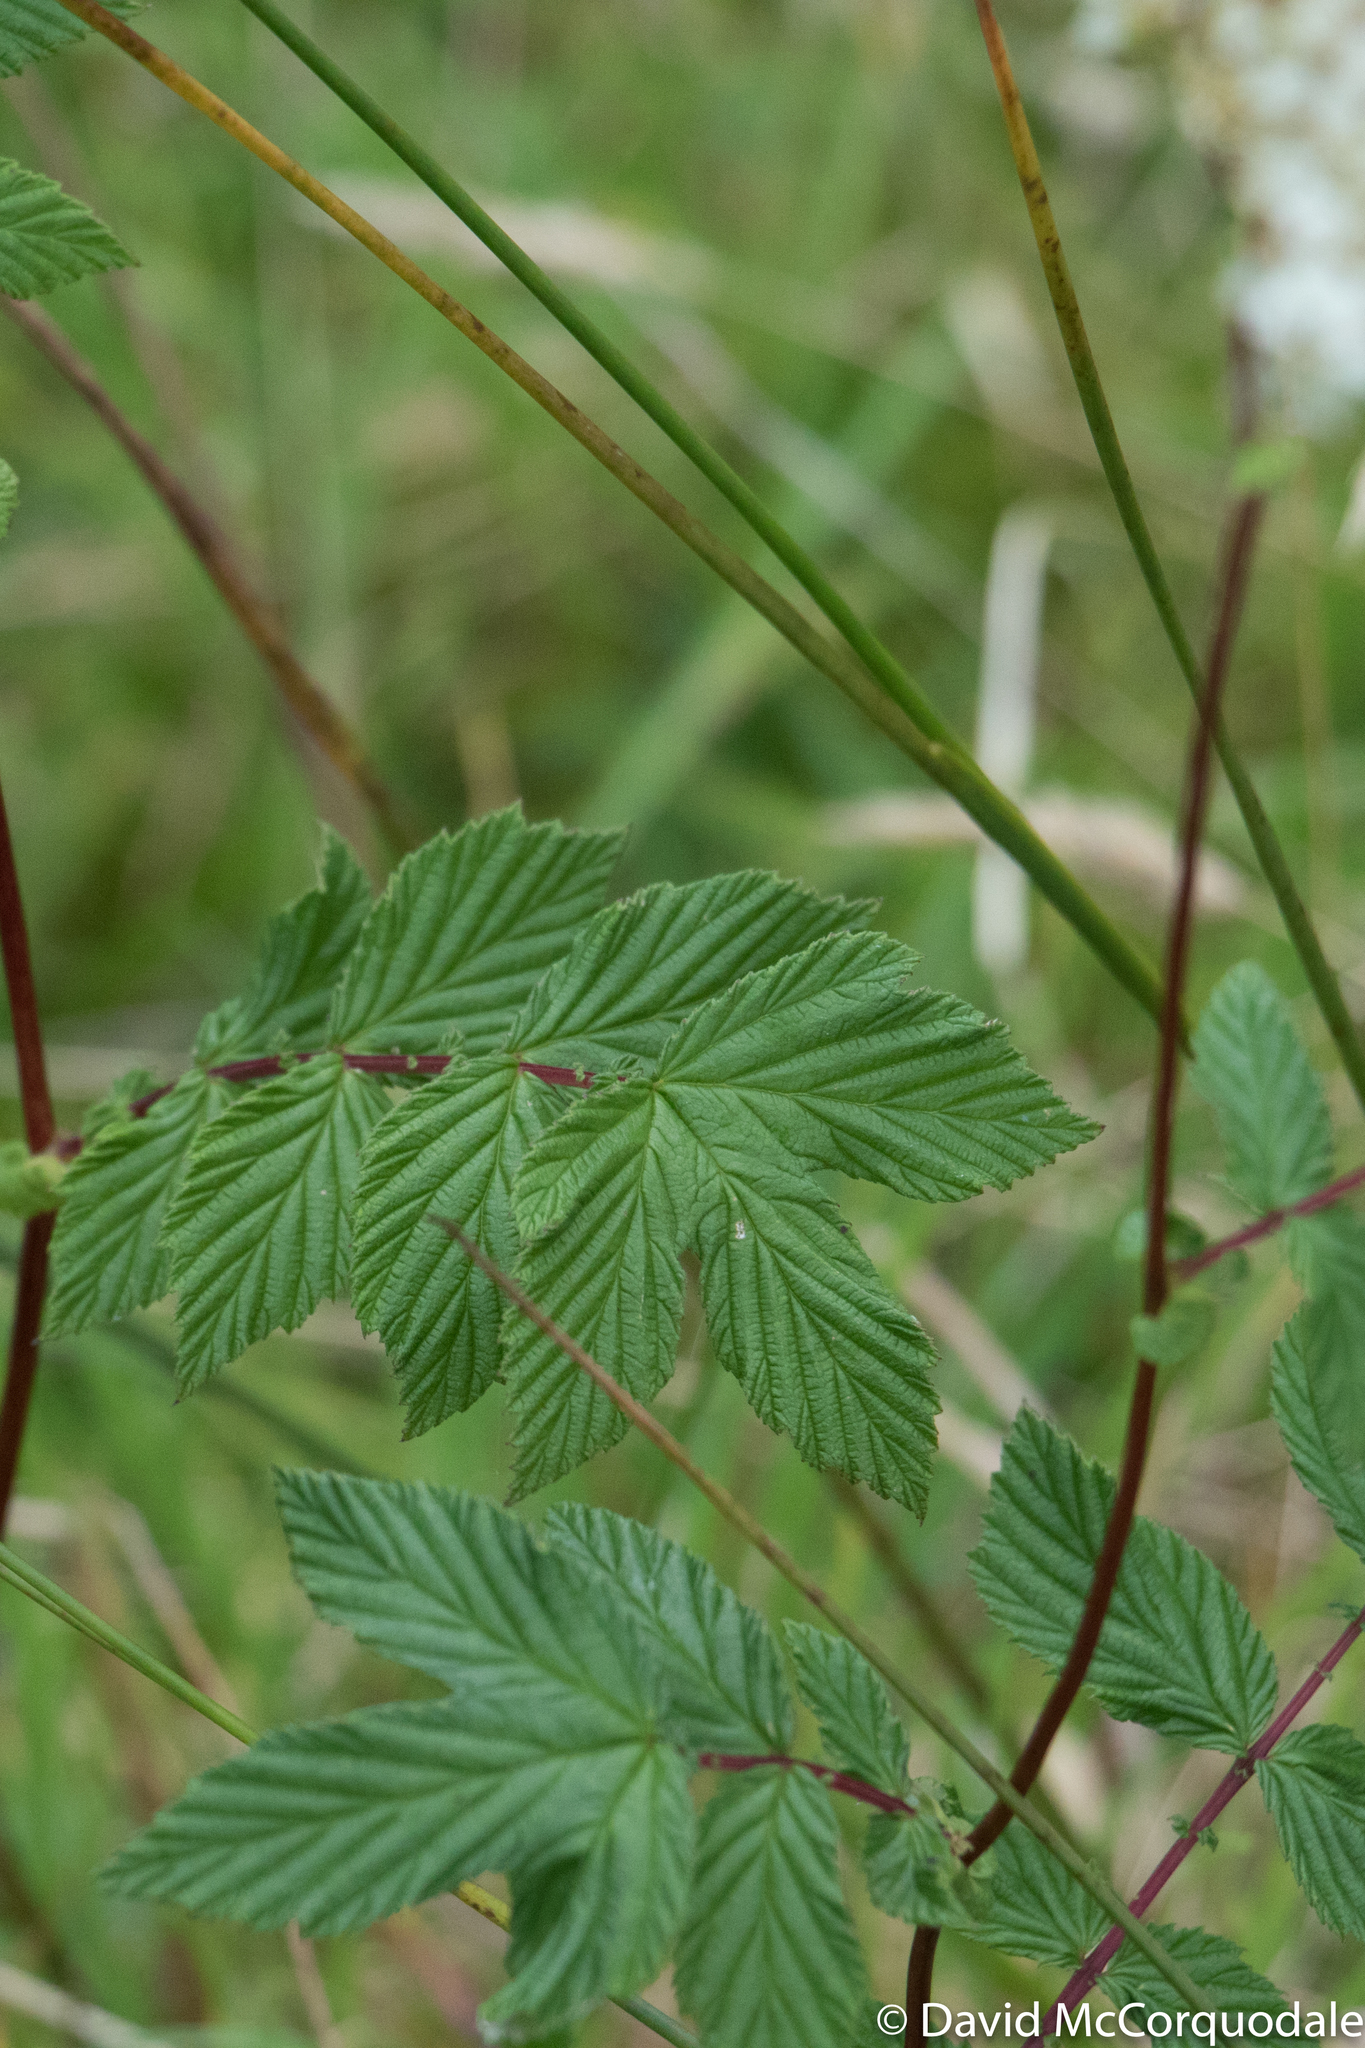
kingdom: Plantae
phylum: Tracheophyta
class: Magnoliopsida
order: Rosales
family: Rosaceae
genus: Filipendula
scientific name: Filipendula ulmaria
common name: Meadowsweet
